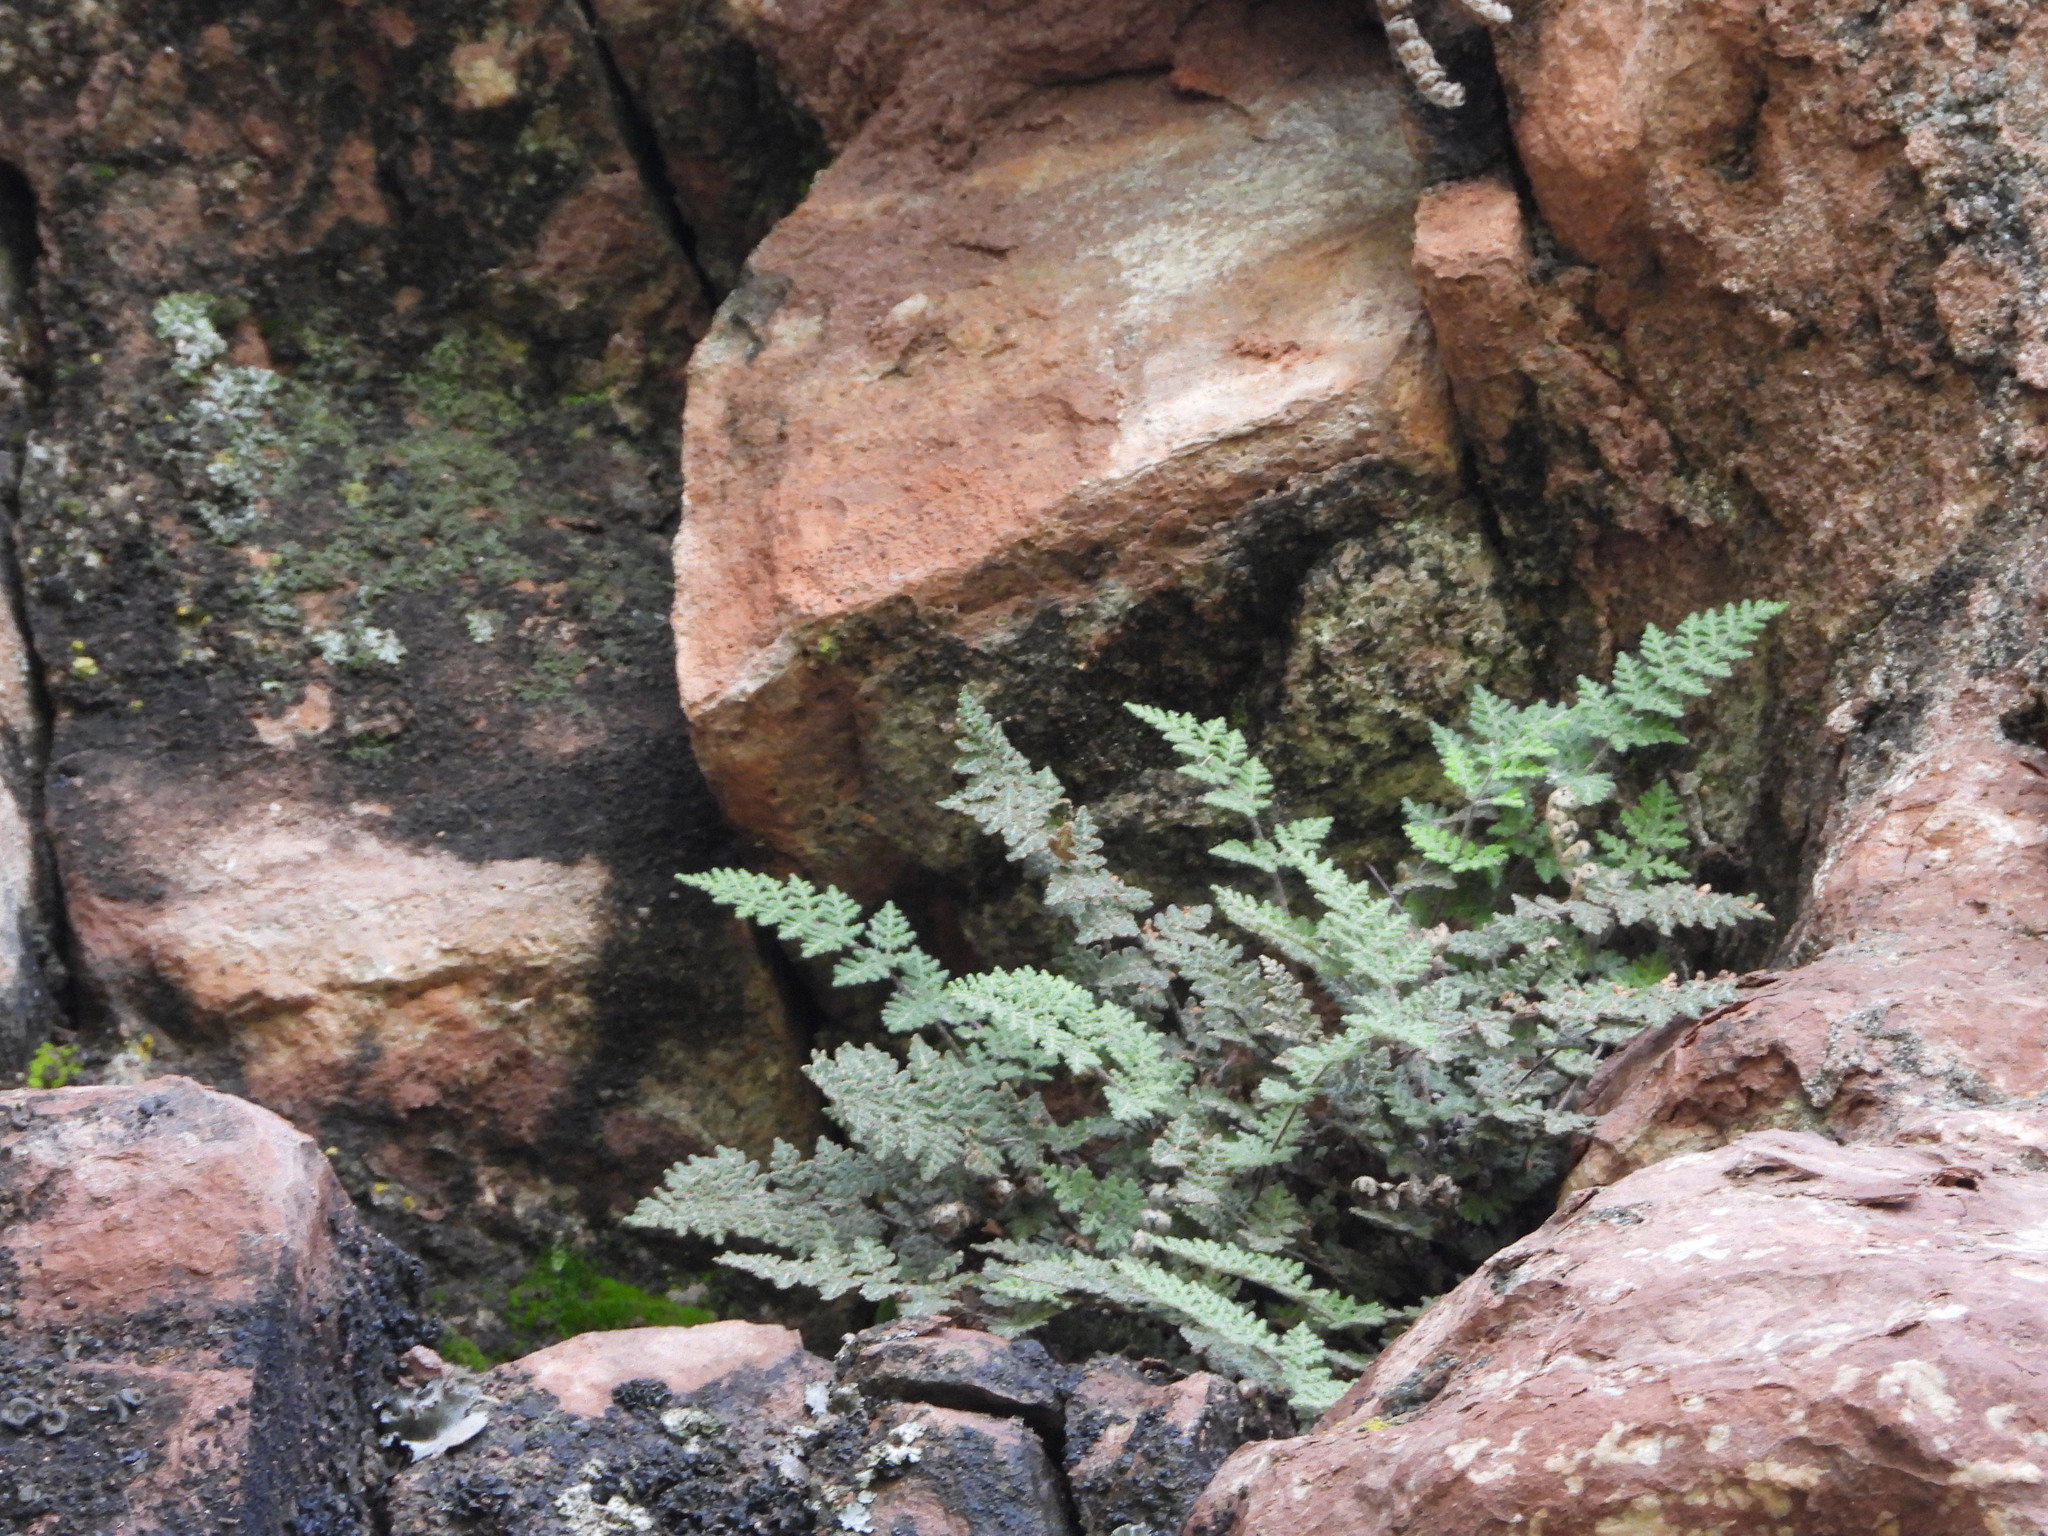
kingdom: Plantae
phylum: Tracheophyta
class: Polypodiopsida
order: Polypodiales
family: Pteridaceae
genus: Myriopteris
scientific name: Myriopteris gracilis
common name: Fee's lip fern
